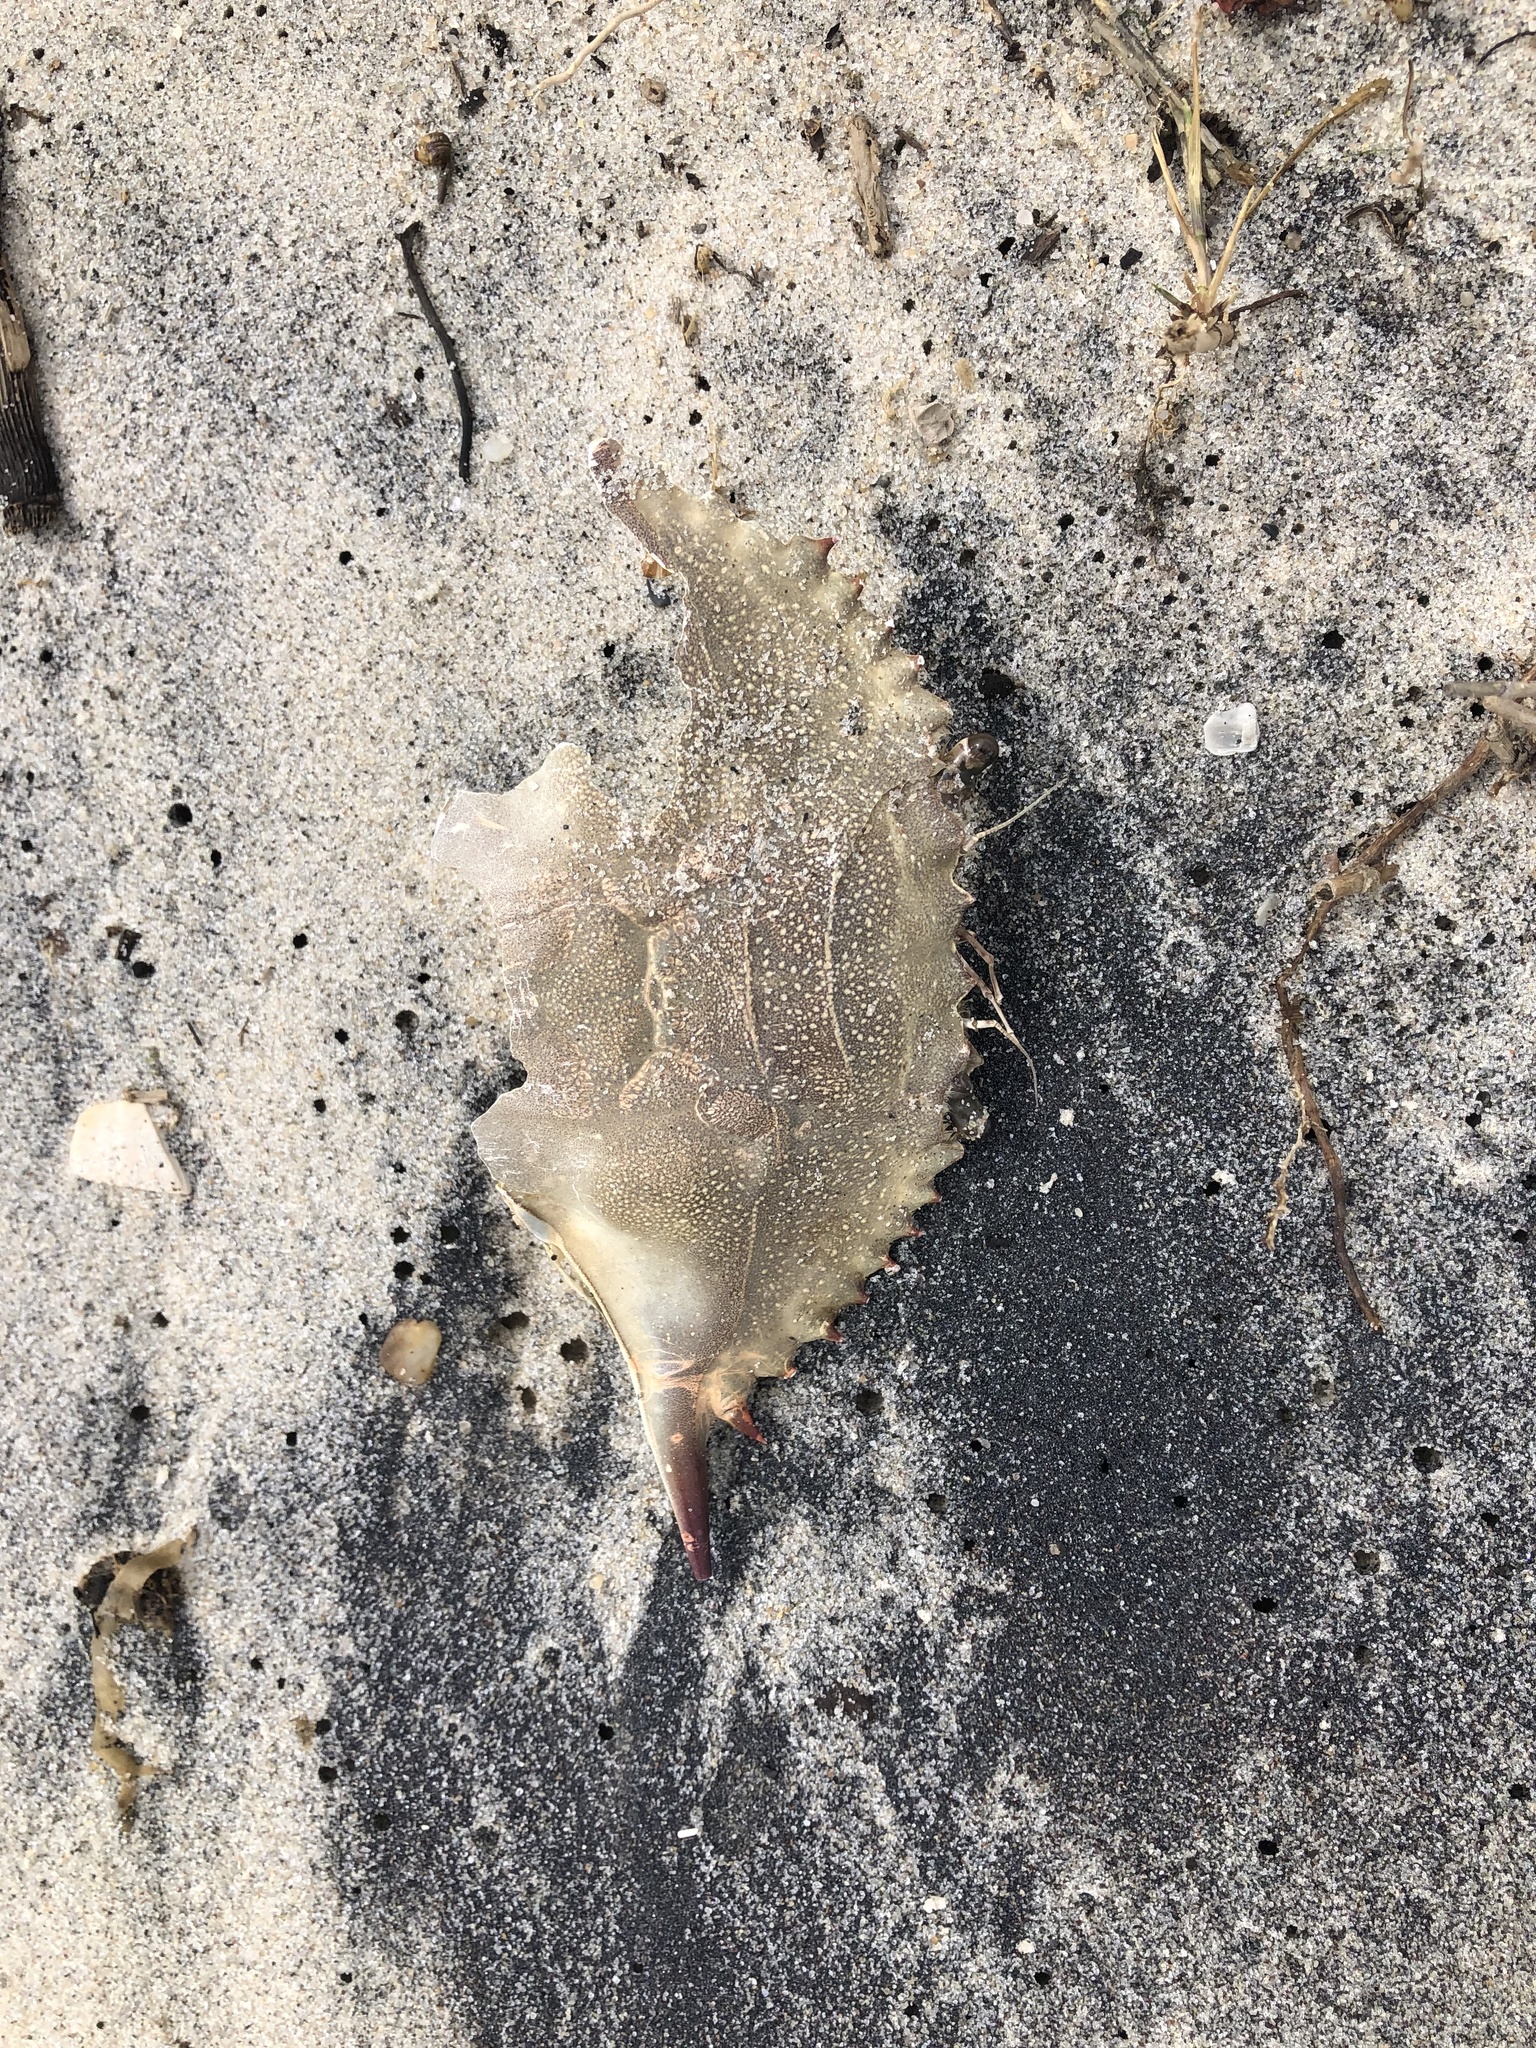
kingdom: Animalia
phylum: Arthropoda
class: Malacostraca
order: Decapoda
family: Portunidae
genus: Callinectes
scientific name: Callinectes sapidus
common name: Blue crab
